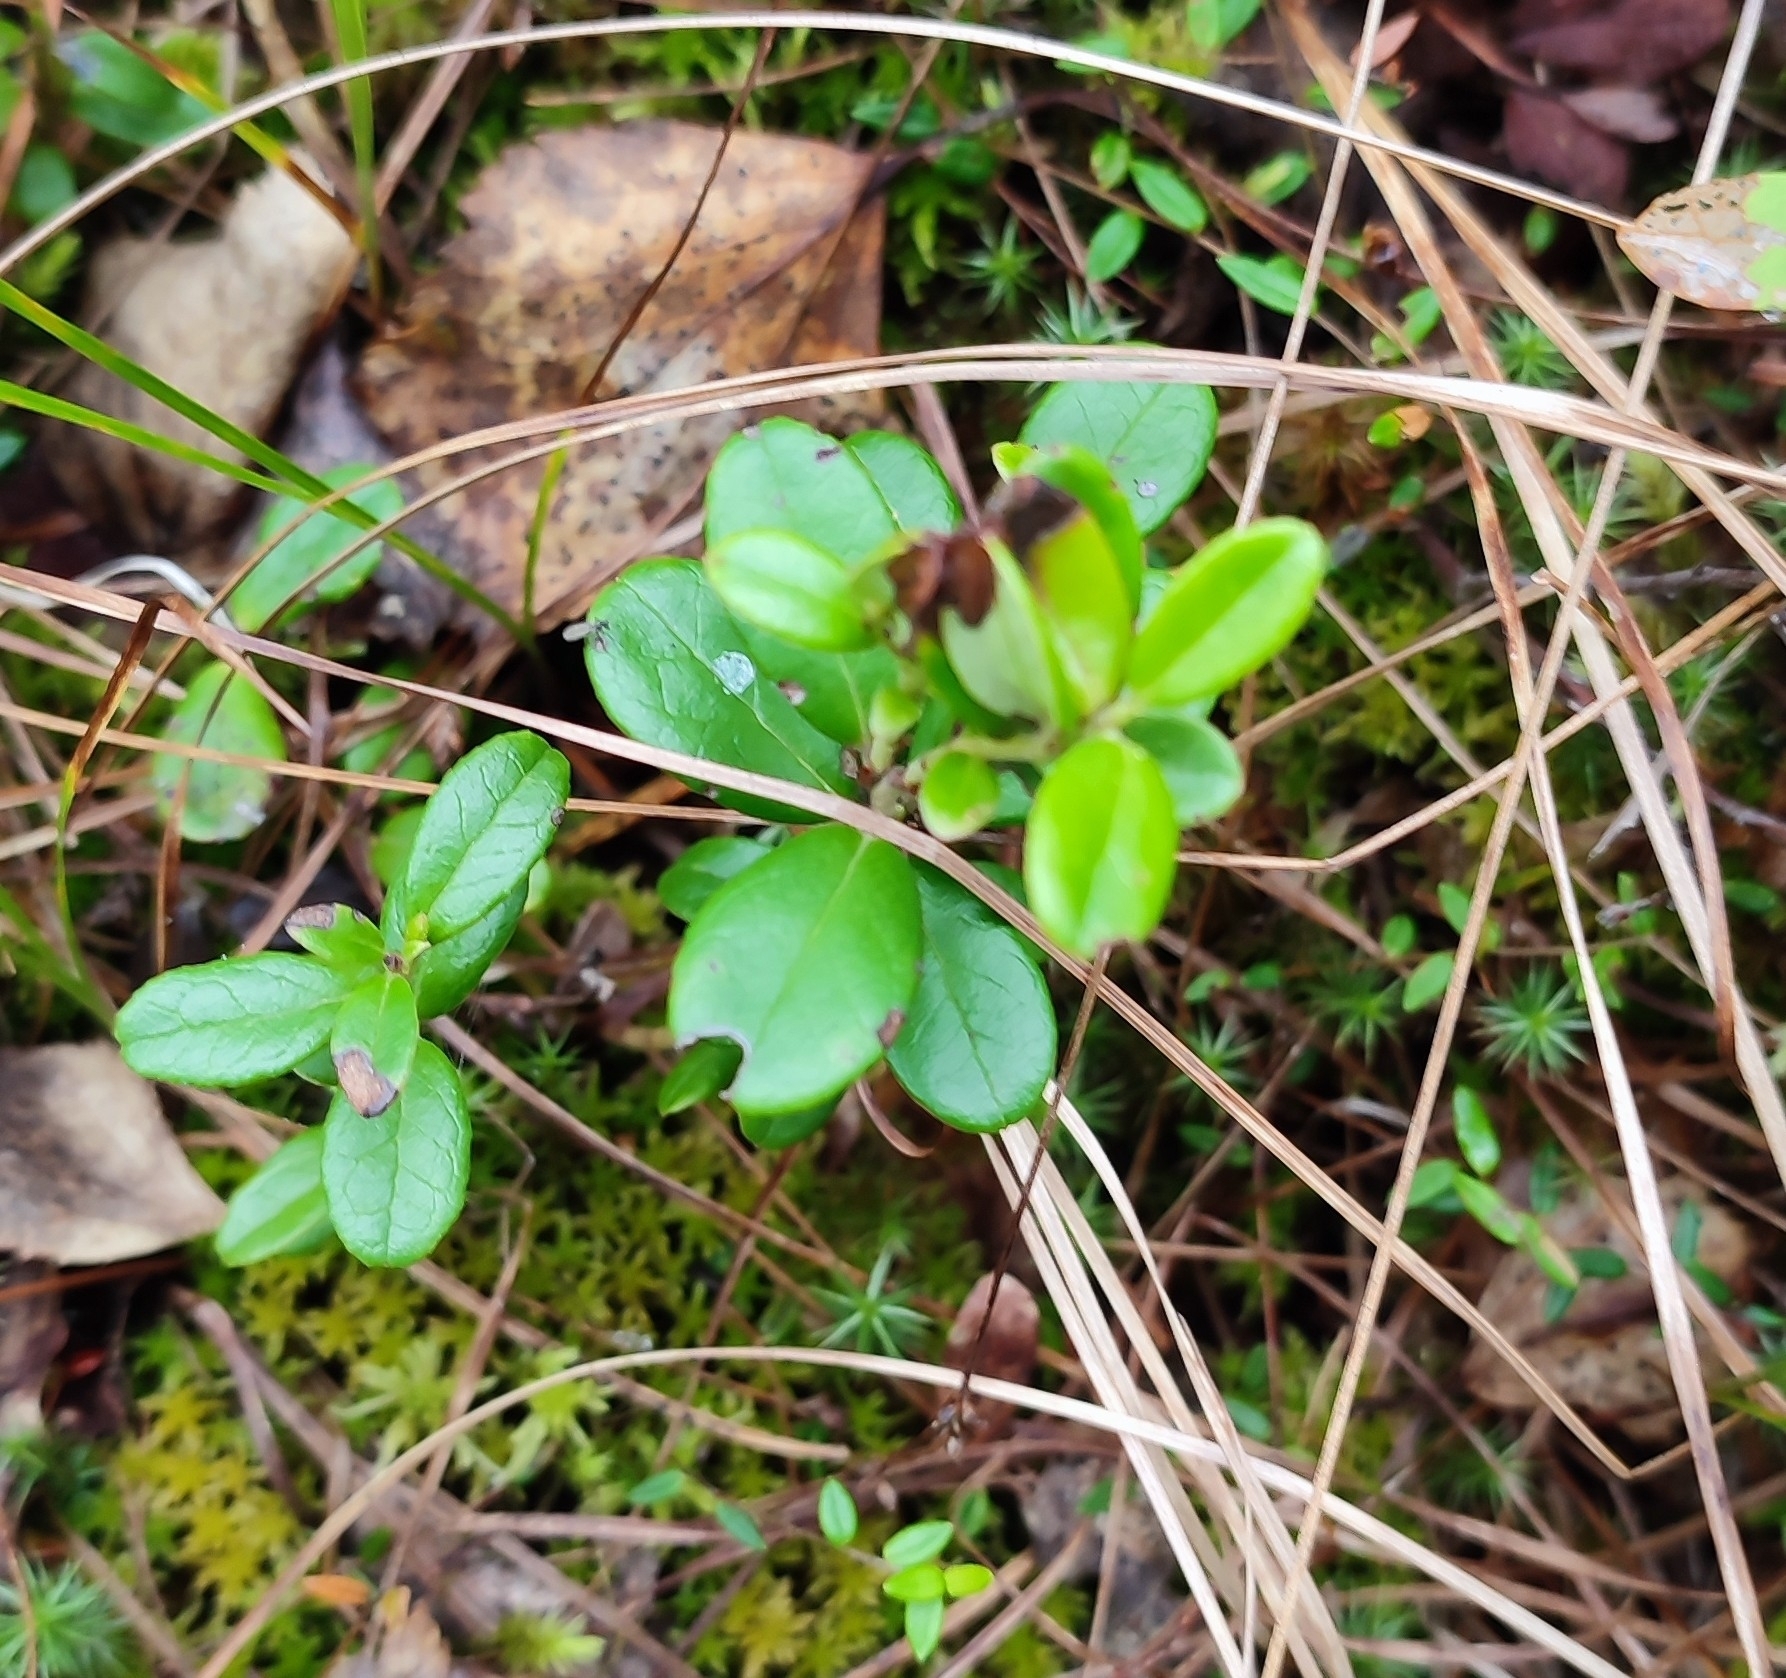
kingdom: Plantae
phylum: Tracheophyta
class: Magnoliopsida
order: Ericales
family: Ericaceae
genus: Vaccinium
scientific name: Vaccinium vitis-idaea
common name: Cowberry
